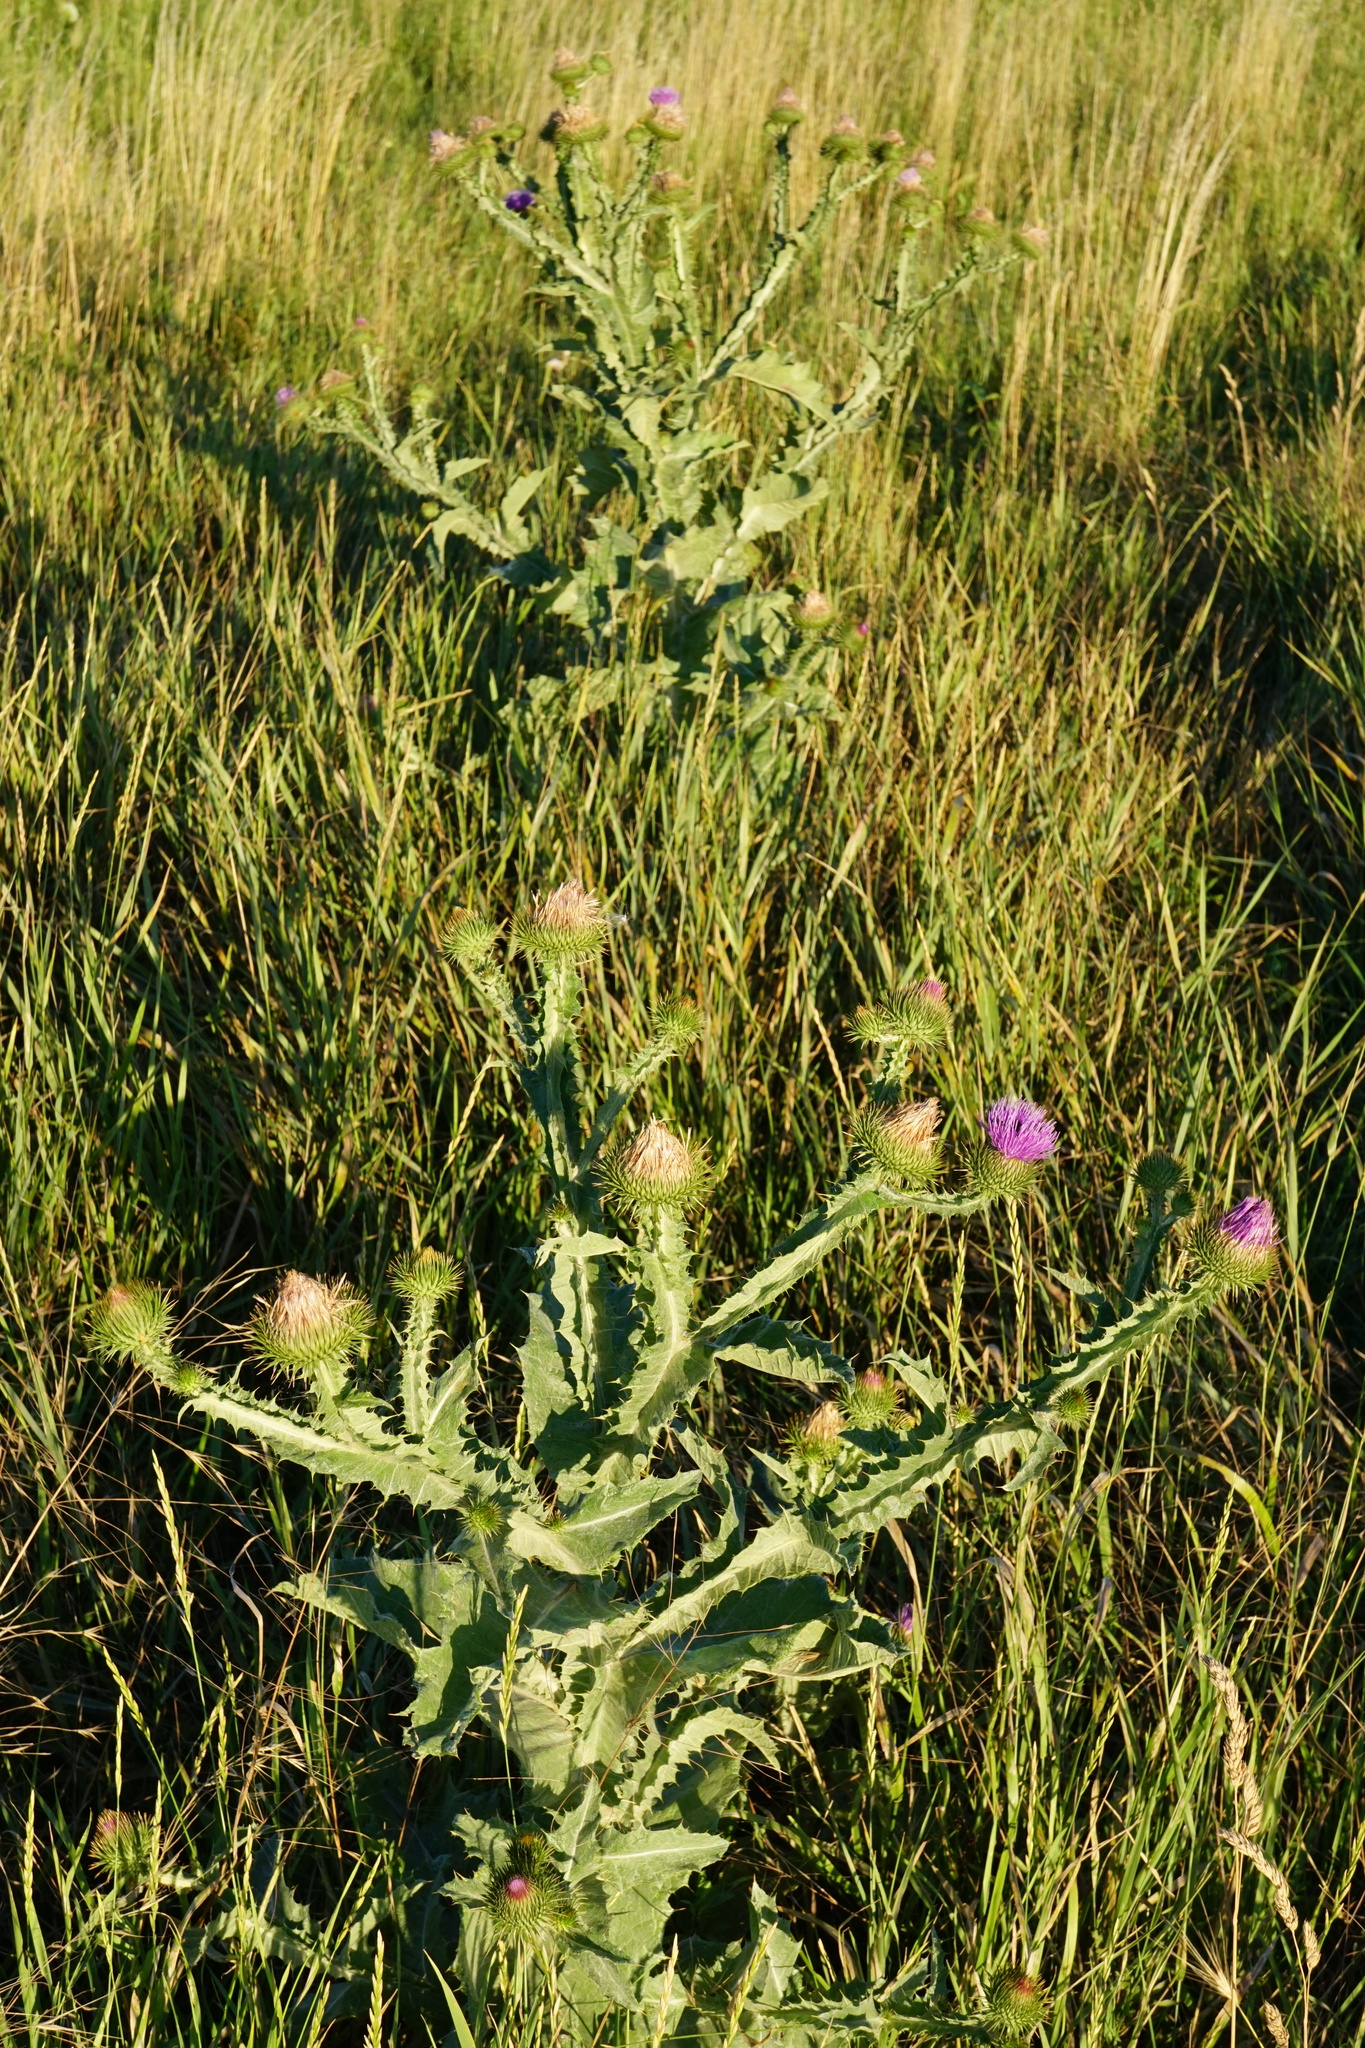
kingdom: Plantae
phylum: Tracheophyta
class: Magnoliopsida
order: Asterales
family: Asteraceae
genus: Onopordum
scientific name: Onopordum acanthium
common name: Scotch thistle
